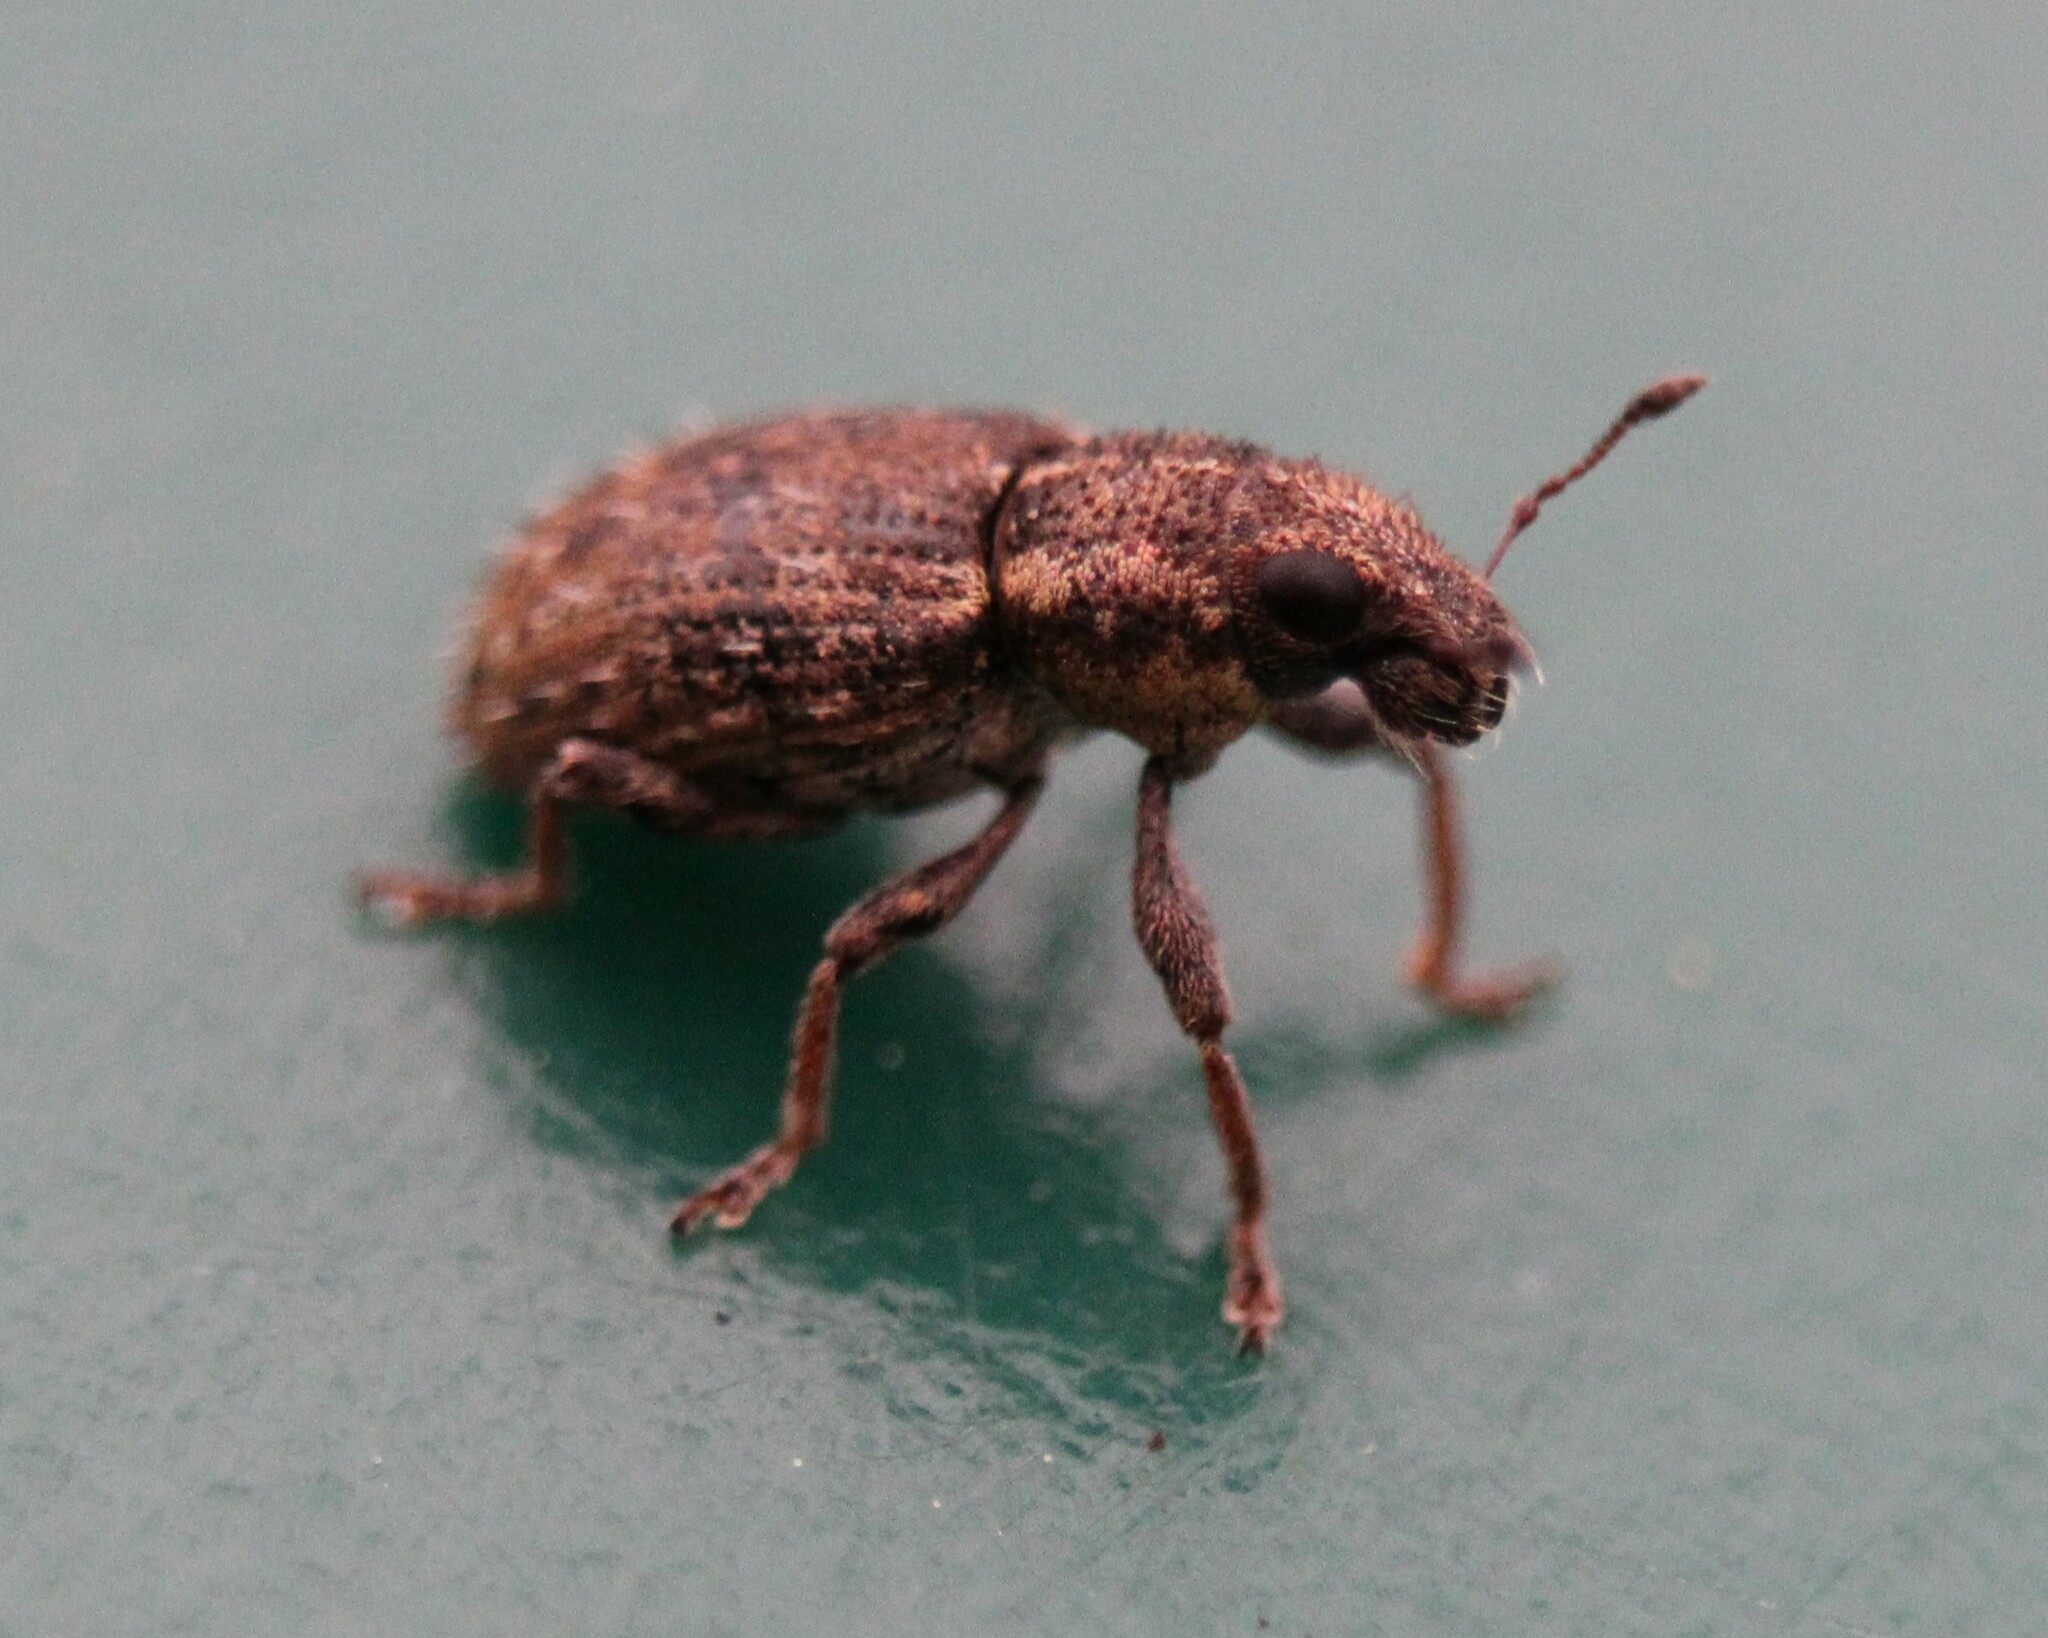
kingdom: Animalia
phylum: Arthropoda
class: Insecta
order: Coleoptera
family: Curculionidae
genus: Sitona
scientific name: Sitona hispidulus
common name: Clover weevil
